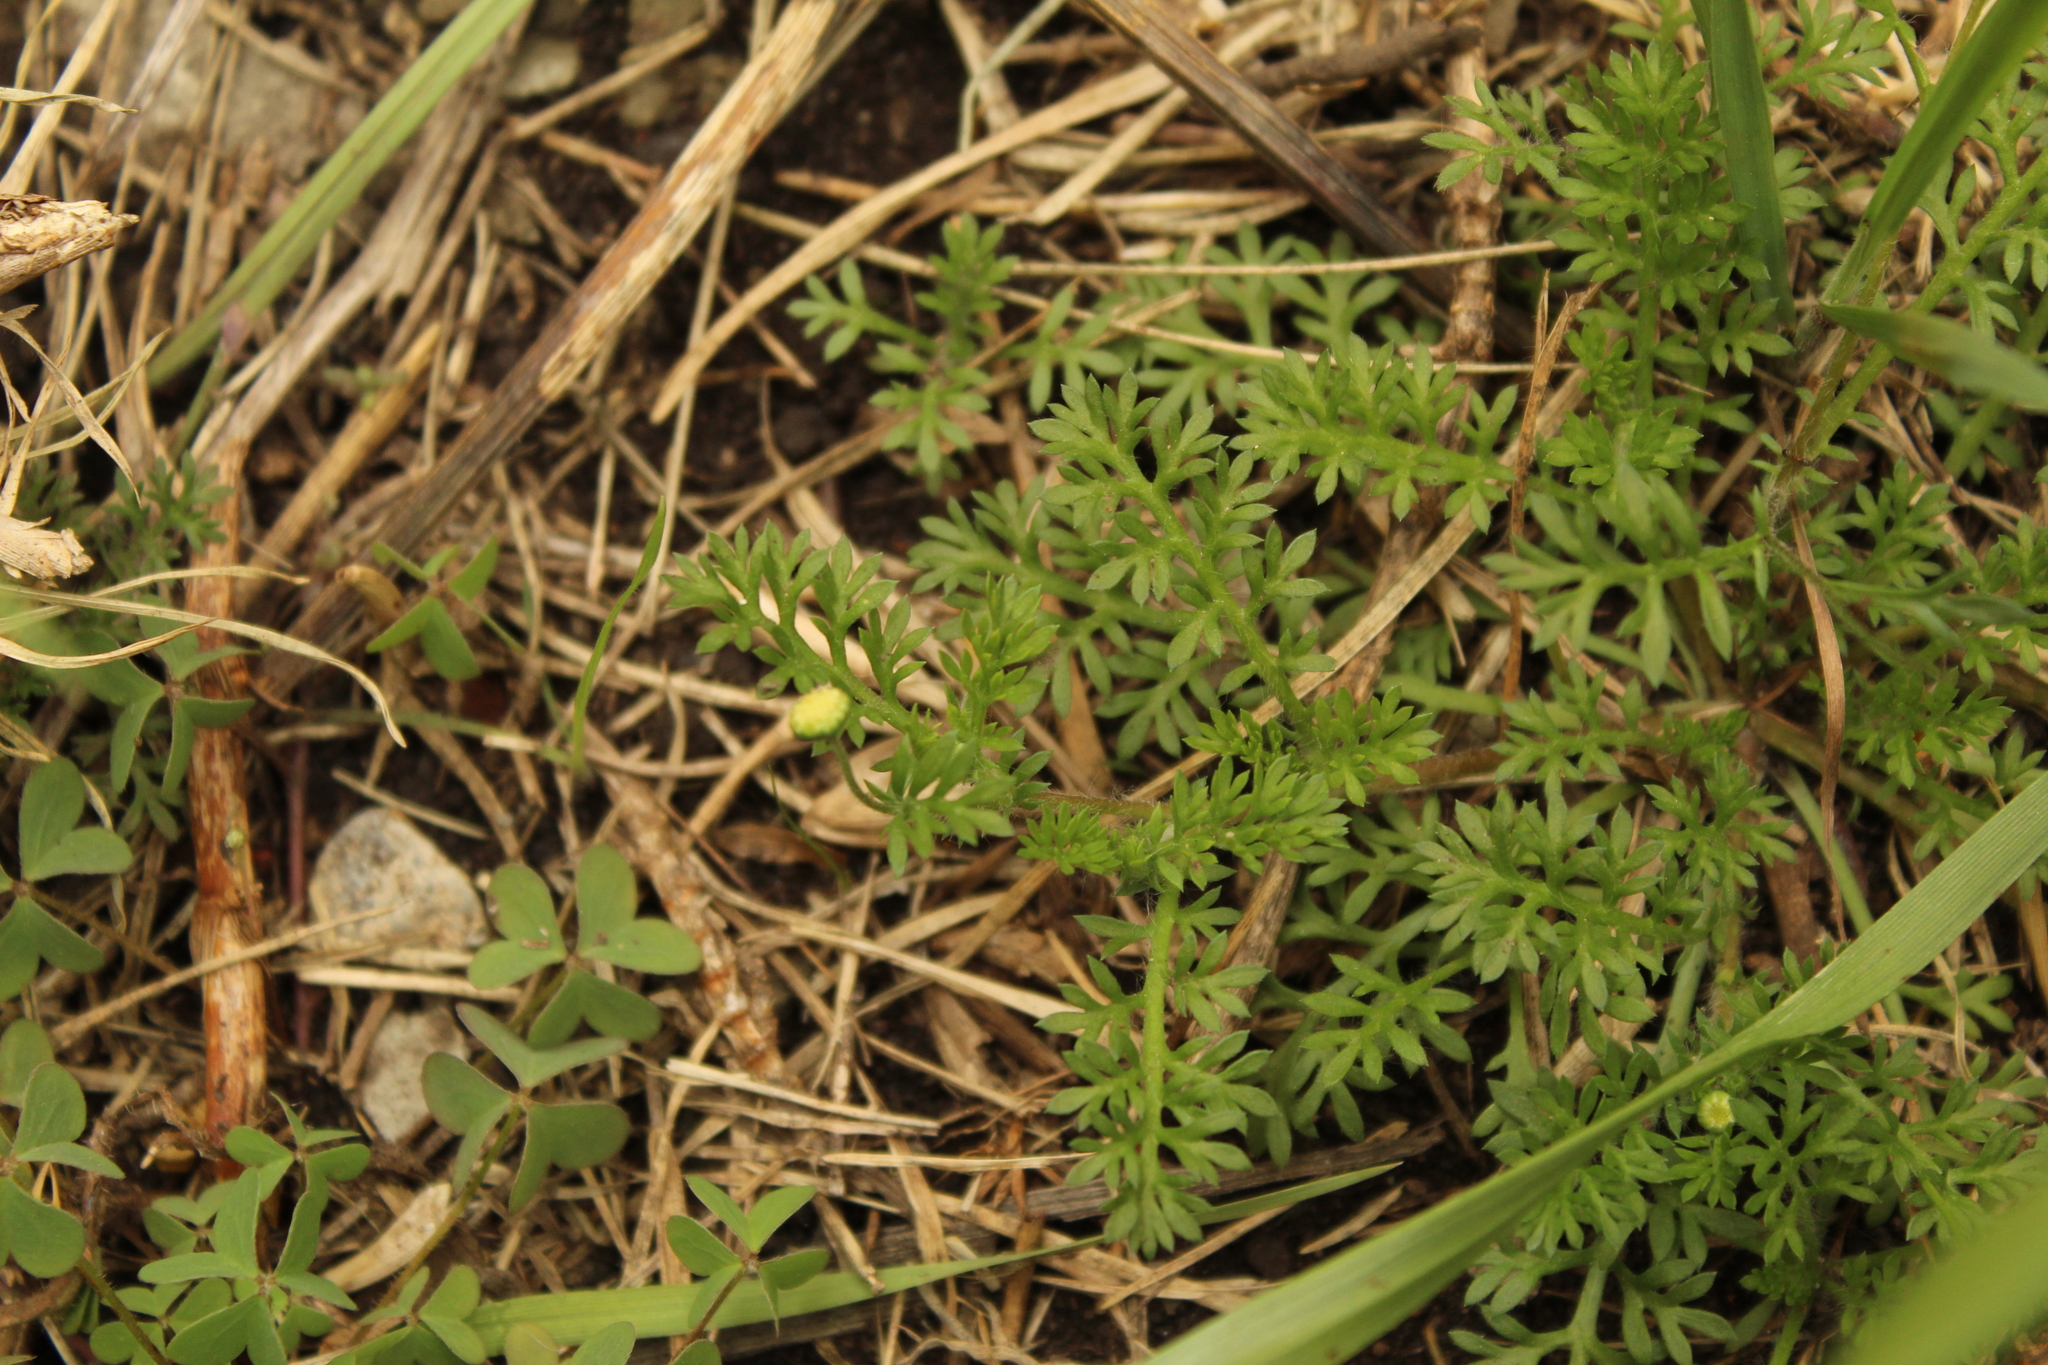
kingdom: Plantae
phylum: Tracheophyta
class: Magnoliopsida
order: Asterales
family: Asteraceae
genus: Cotula
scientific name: Cotula australis
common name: Australian waterbuttons
